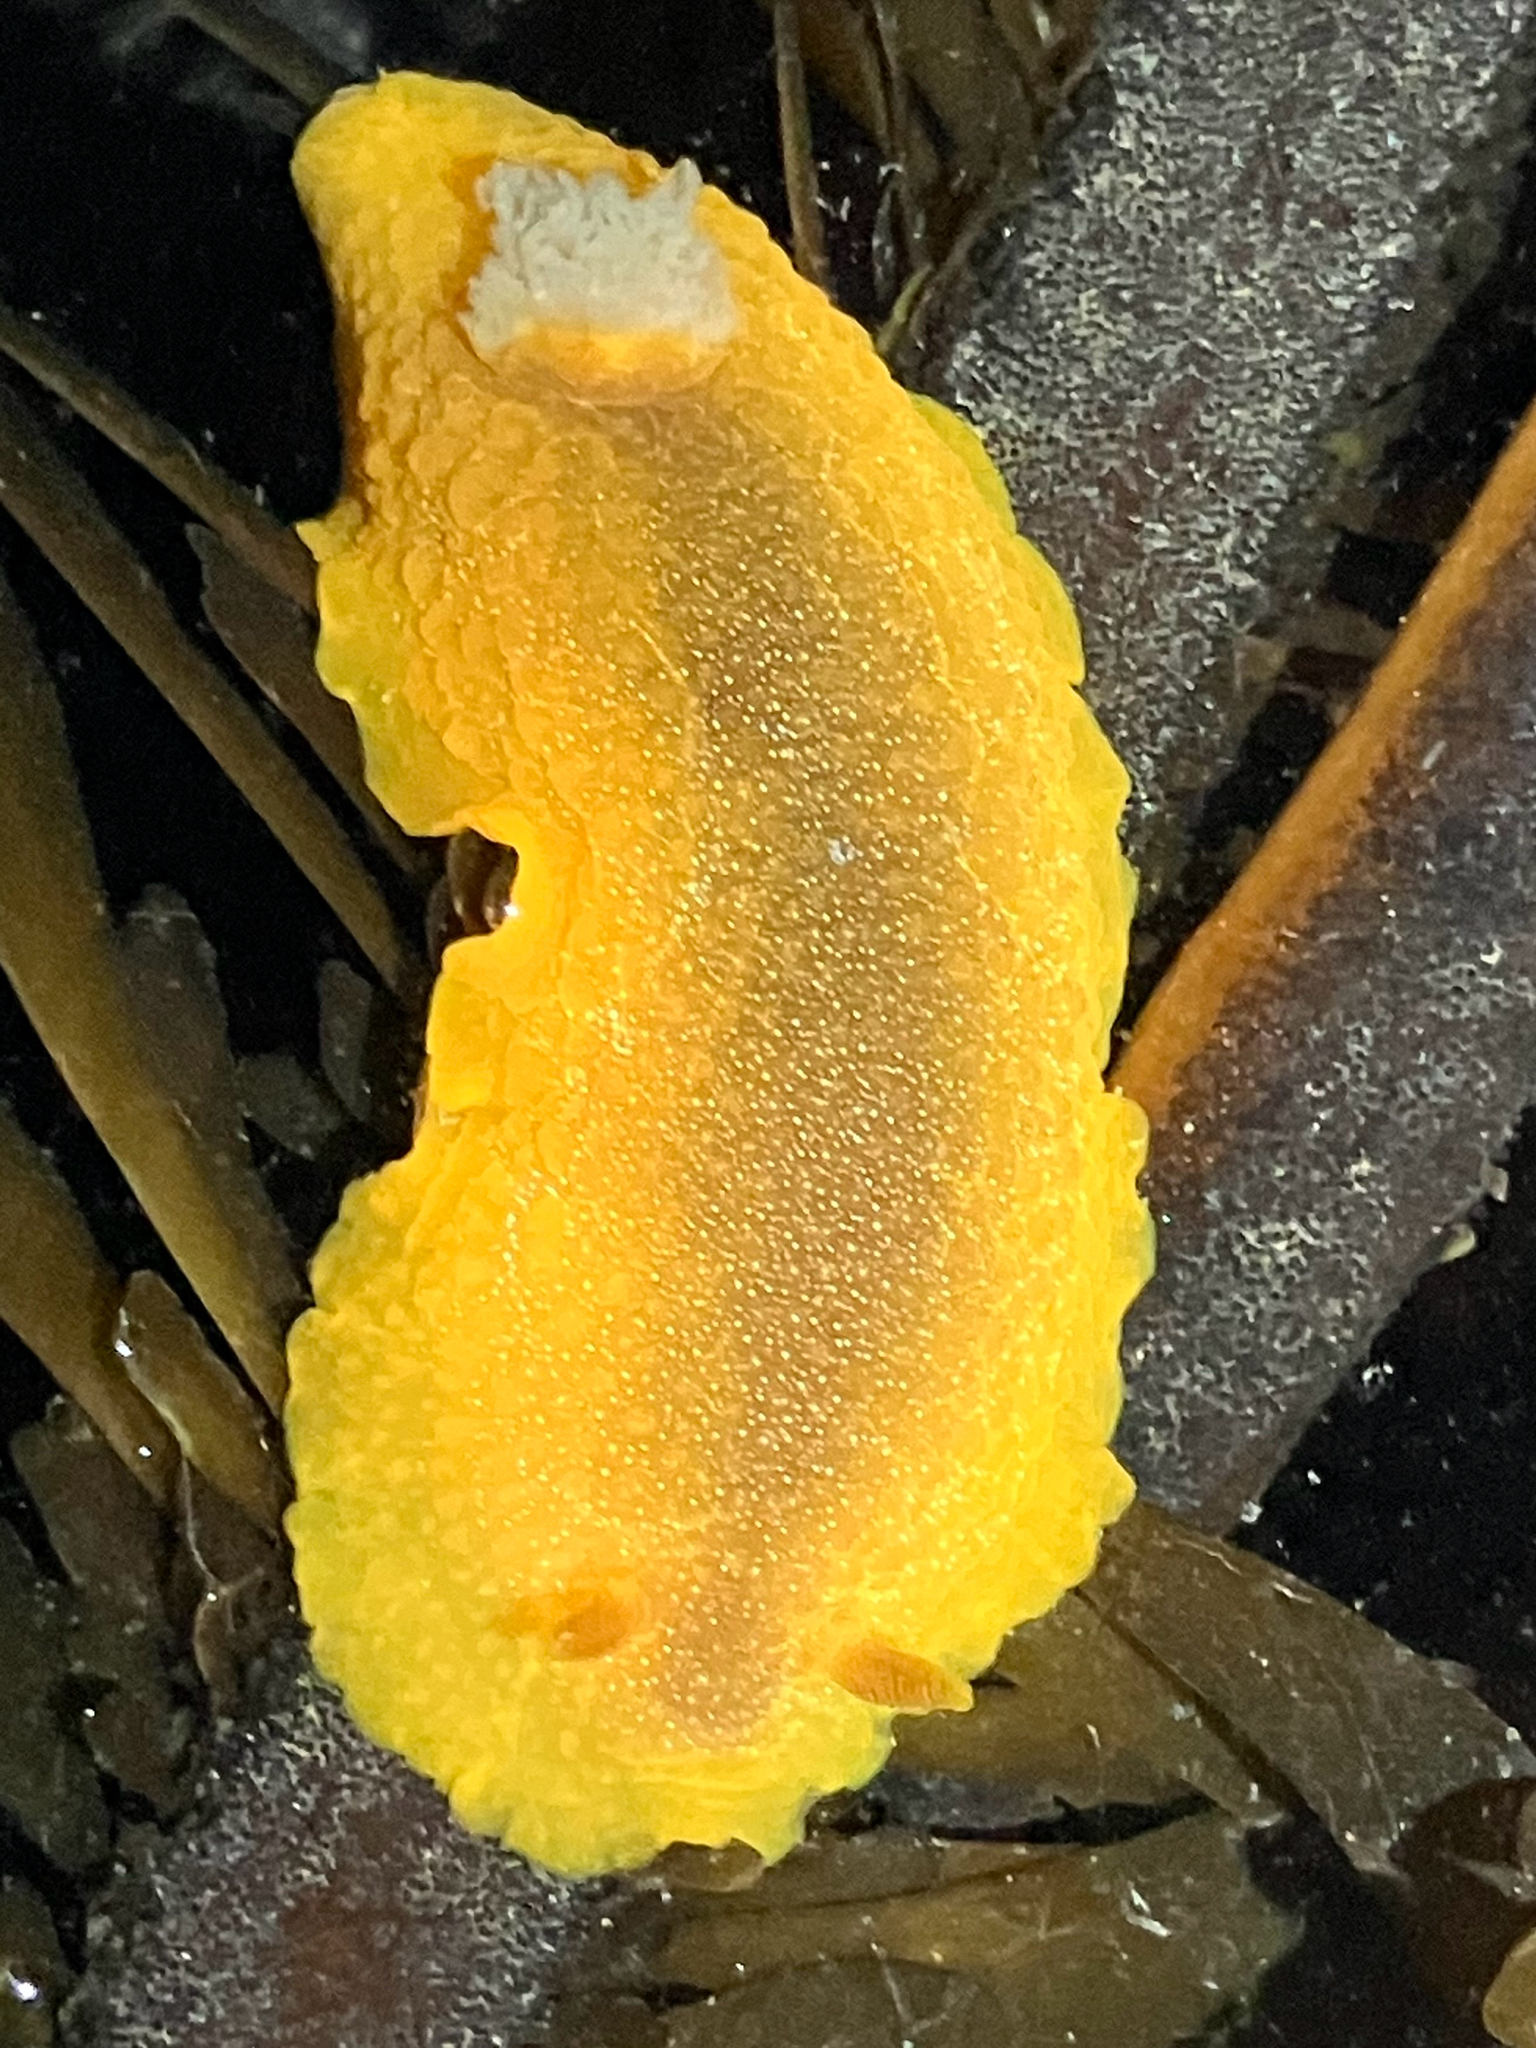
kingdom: Animalia
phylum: Mollusca
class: Gastropoda
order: Nudibranchia
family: Dendrodorididae
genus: Doriopsilla
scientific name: Doriopsilla albopunctata
